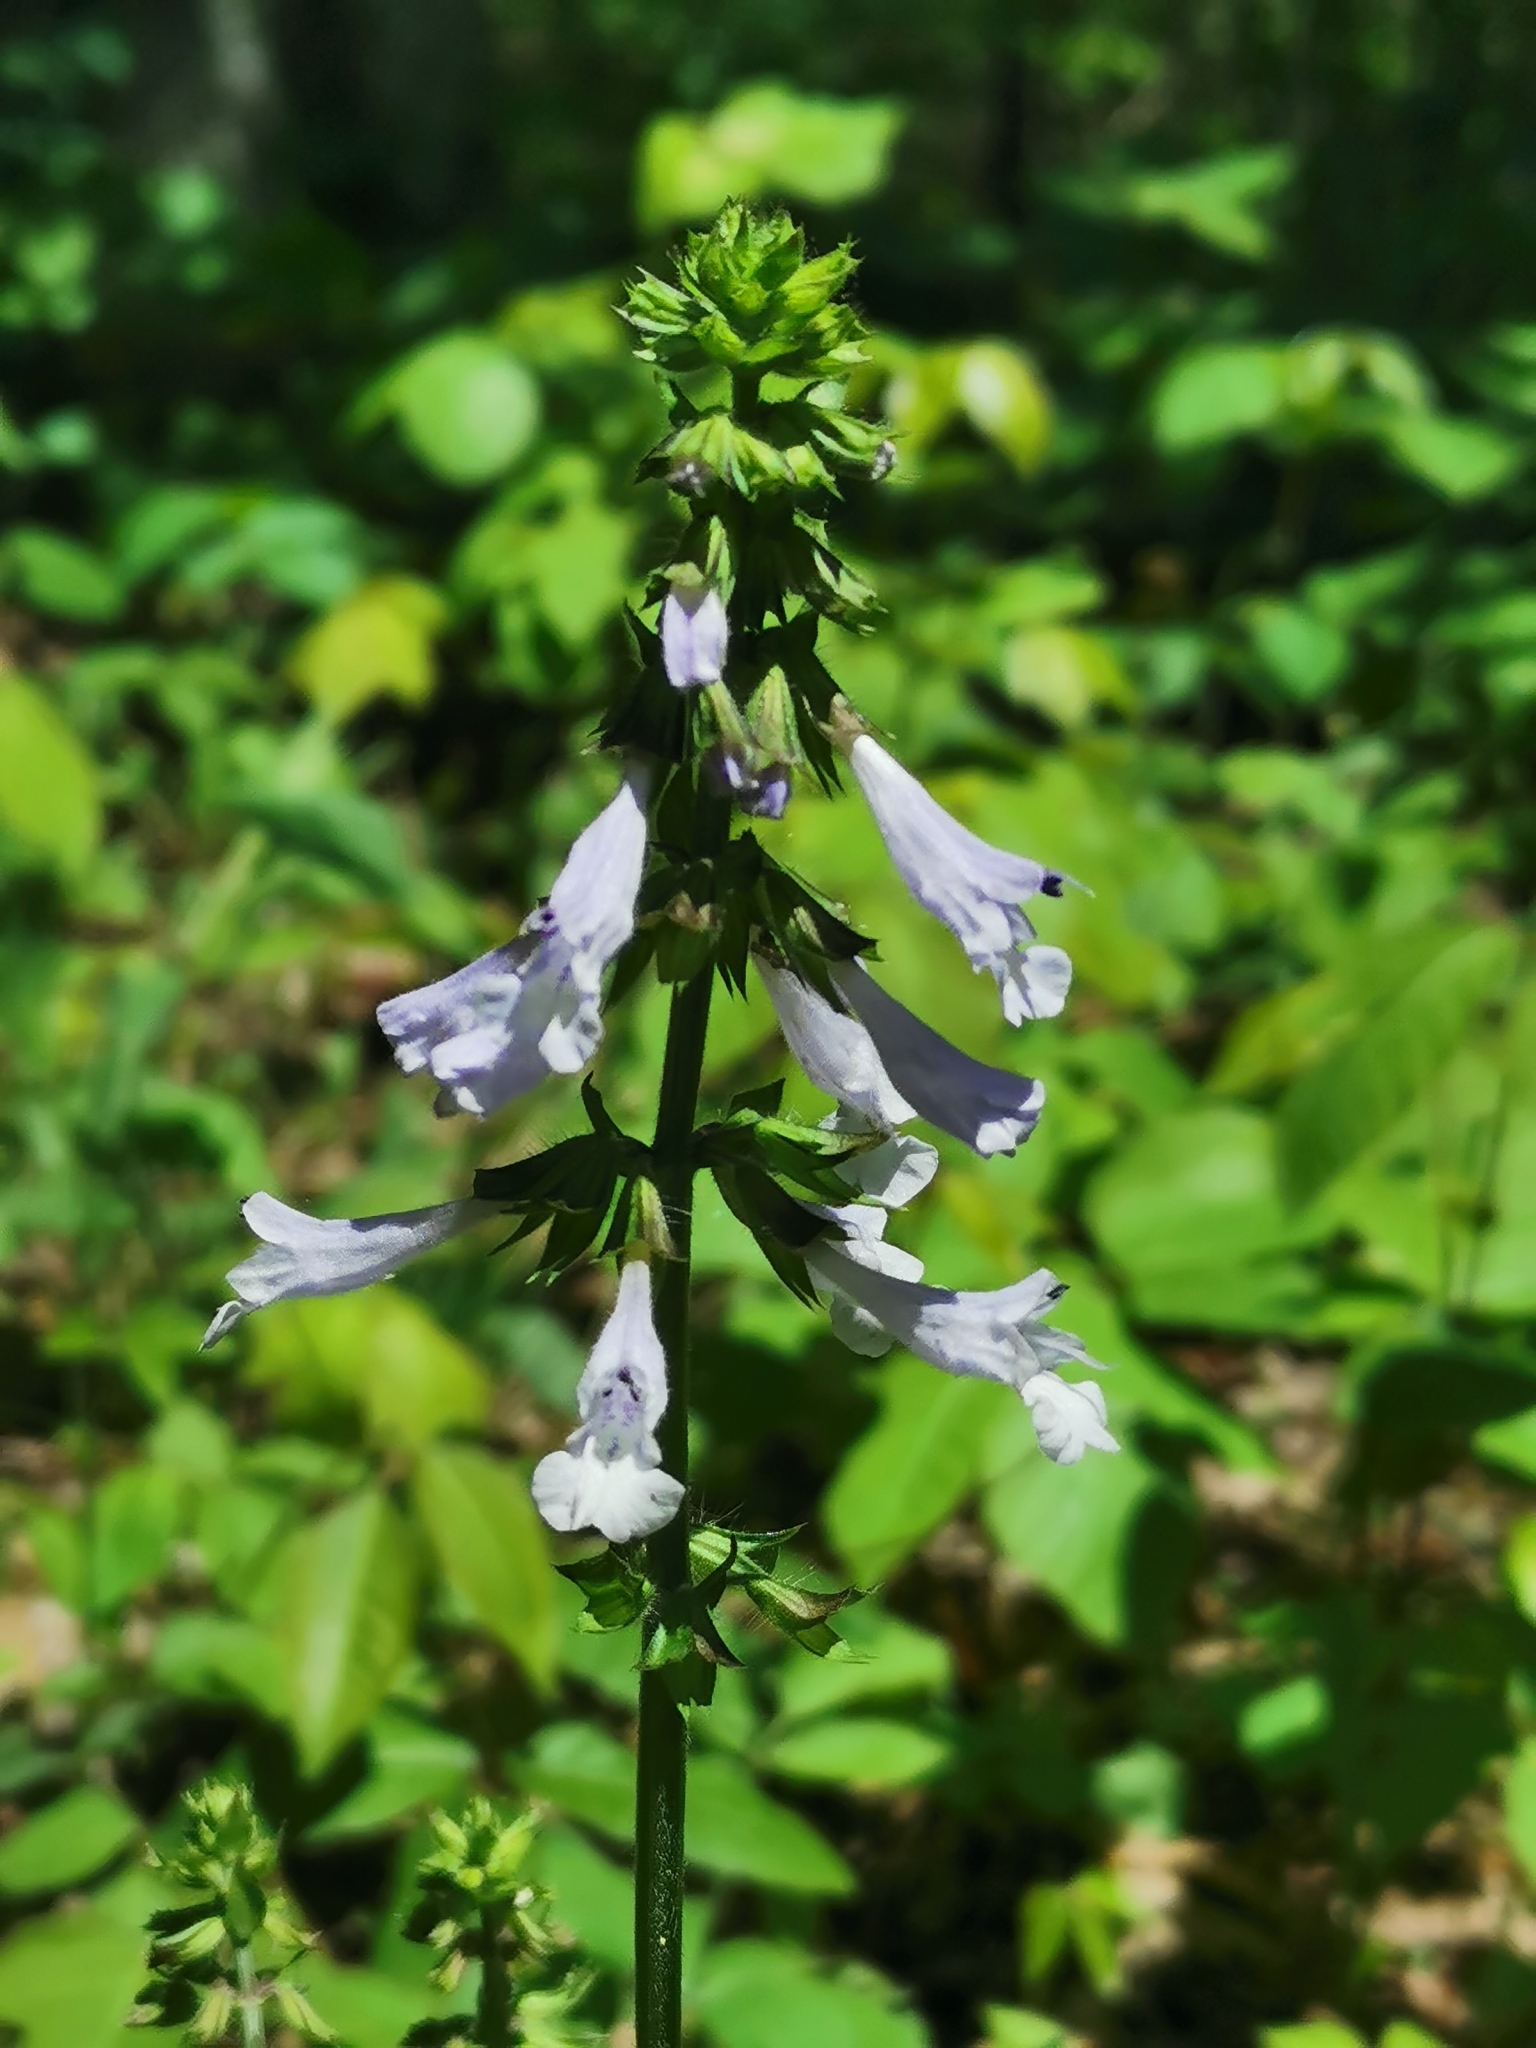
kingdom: Plantae
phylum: Tracheophyta
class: Magnoliopsida
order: Lamiales
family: Lamiaceae
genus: Salvia
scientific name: Salvia lyrata
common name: Cancerweed
